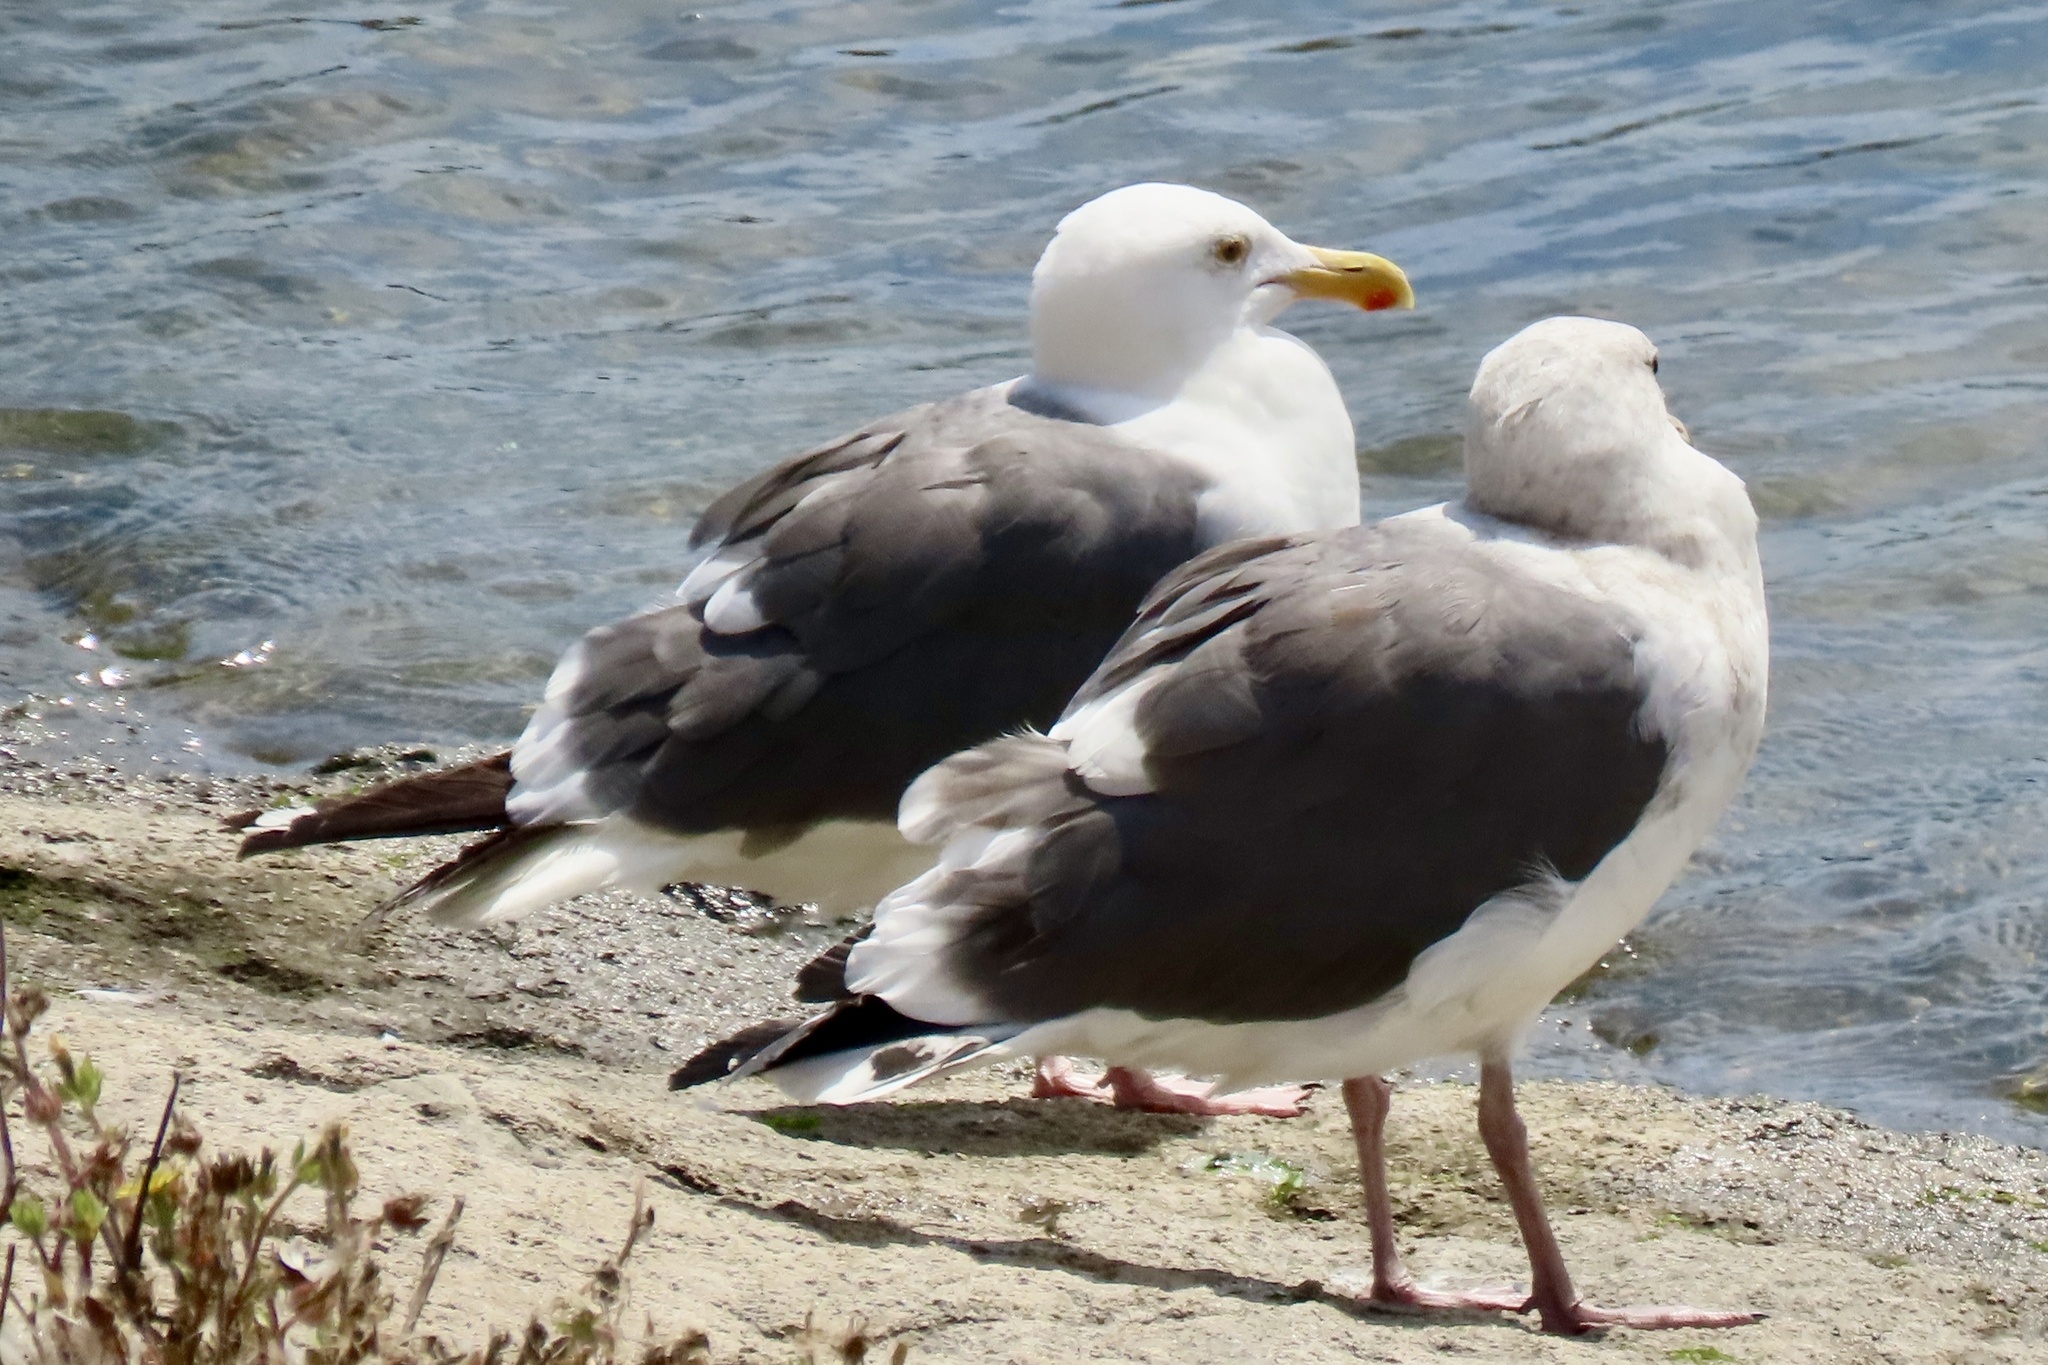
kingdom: Animalia
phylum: Chordata
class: Aves
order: Charadriiformes
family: Laridae
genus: Larus
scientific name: Larus occidentalis
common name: Western gull
